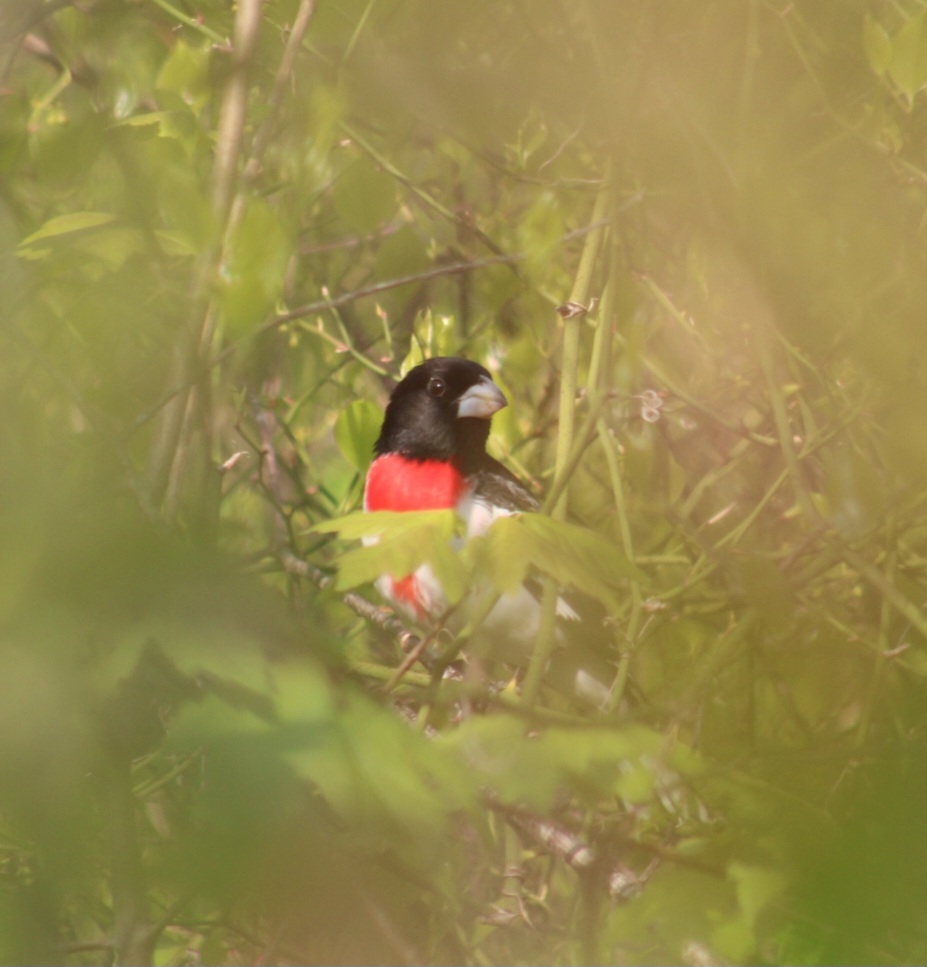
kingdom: Animalia
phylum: Chordata
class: Aves
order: Passeriformes
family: Cardinalidae
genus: Pheucticus
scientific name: Pheucticus ludovicianus
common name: Rose-breasted grosbeak
